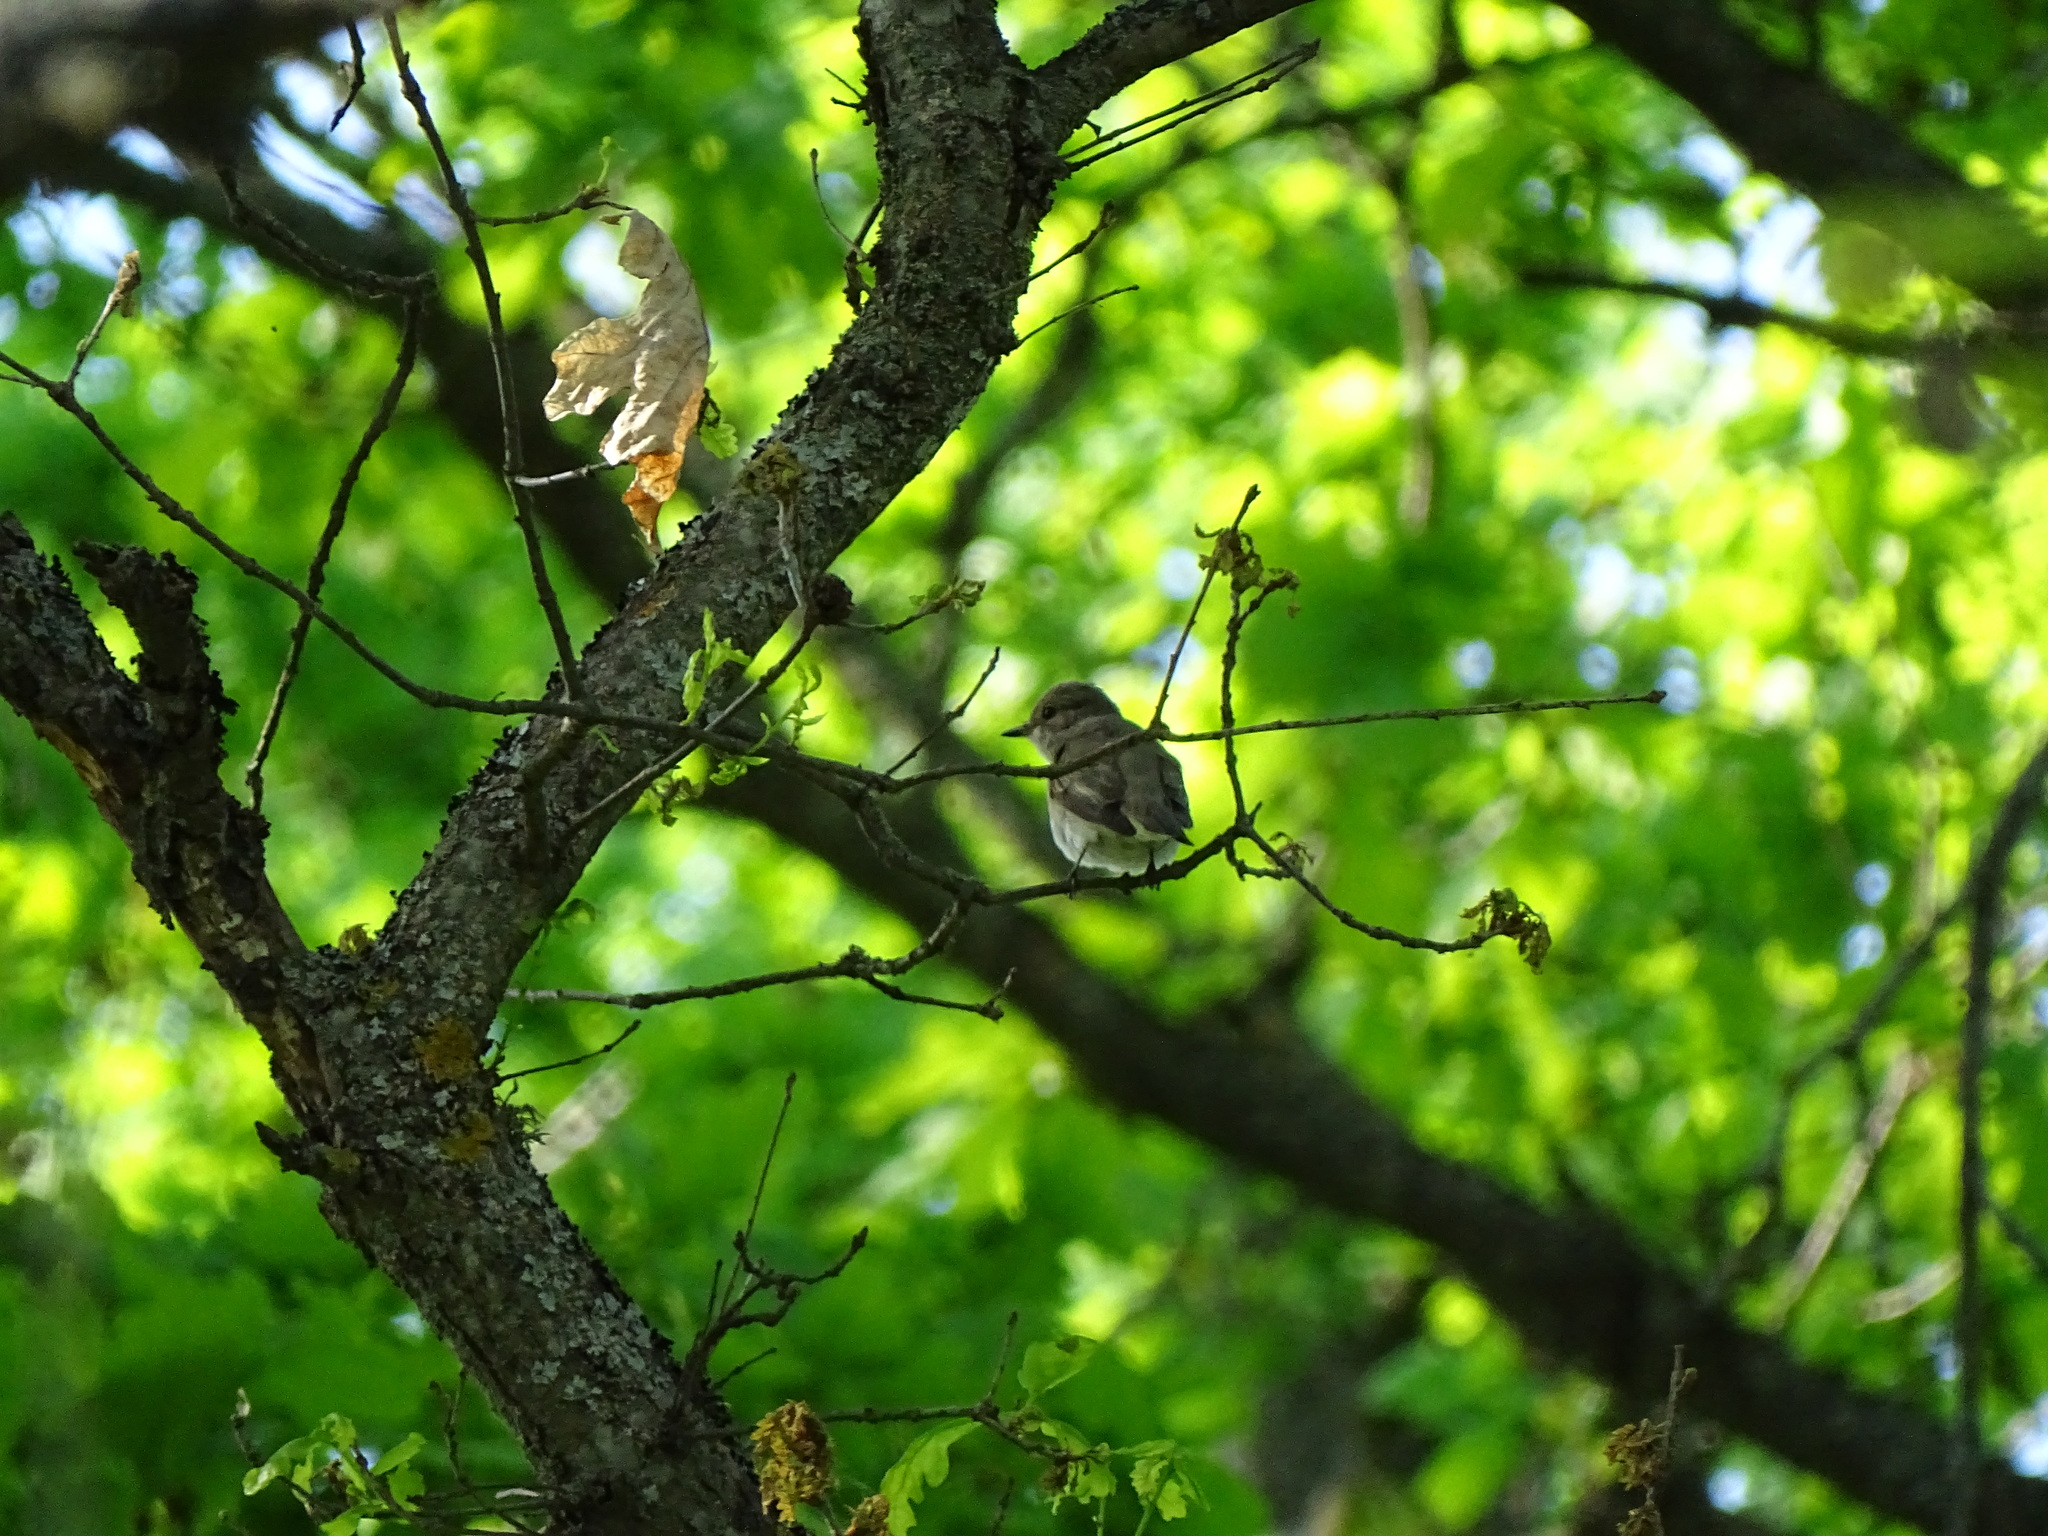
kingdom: Animalia
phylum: Chordata
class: Aves
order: Passeriformes
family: Muscicapidae
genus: Muscicapa
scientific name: Muscicapa striata
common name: Spotted flycatcher
